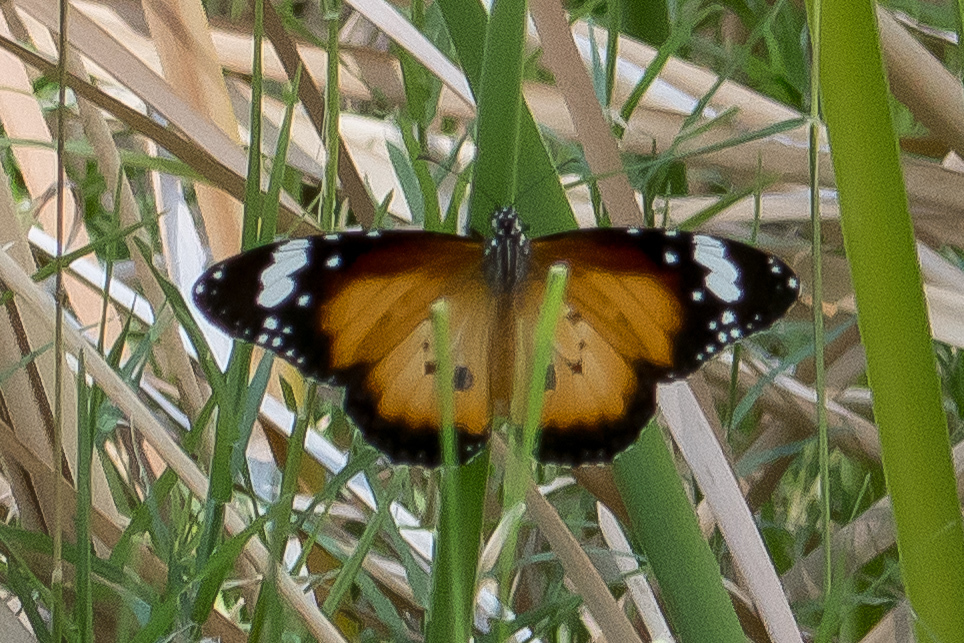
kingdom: Animalia
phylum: Arthropoda
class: Insecta
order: Lepidoptera
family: Nymphalidae
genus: Danaus
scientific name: Danaus chrysippus
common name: Plain tiger
